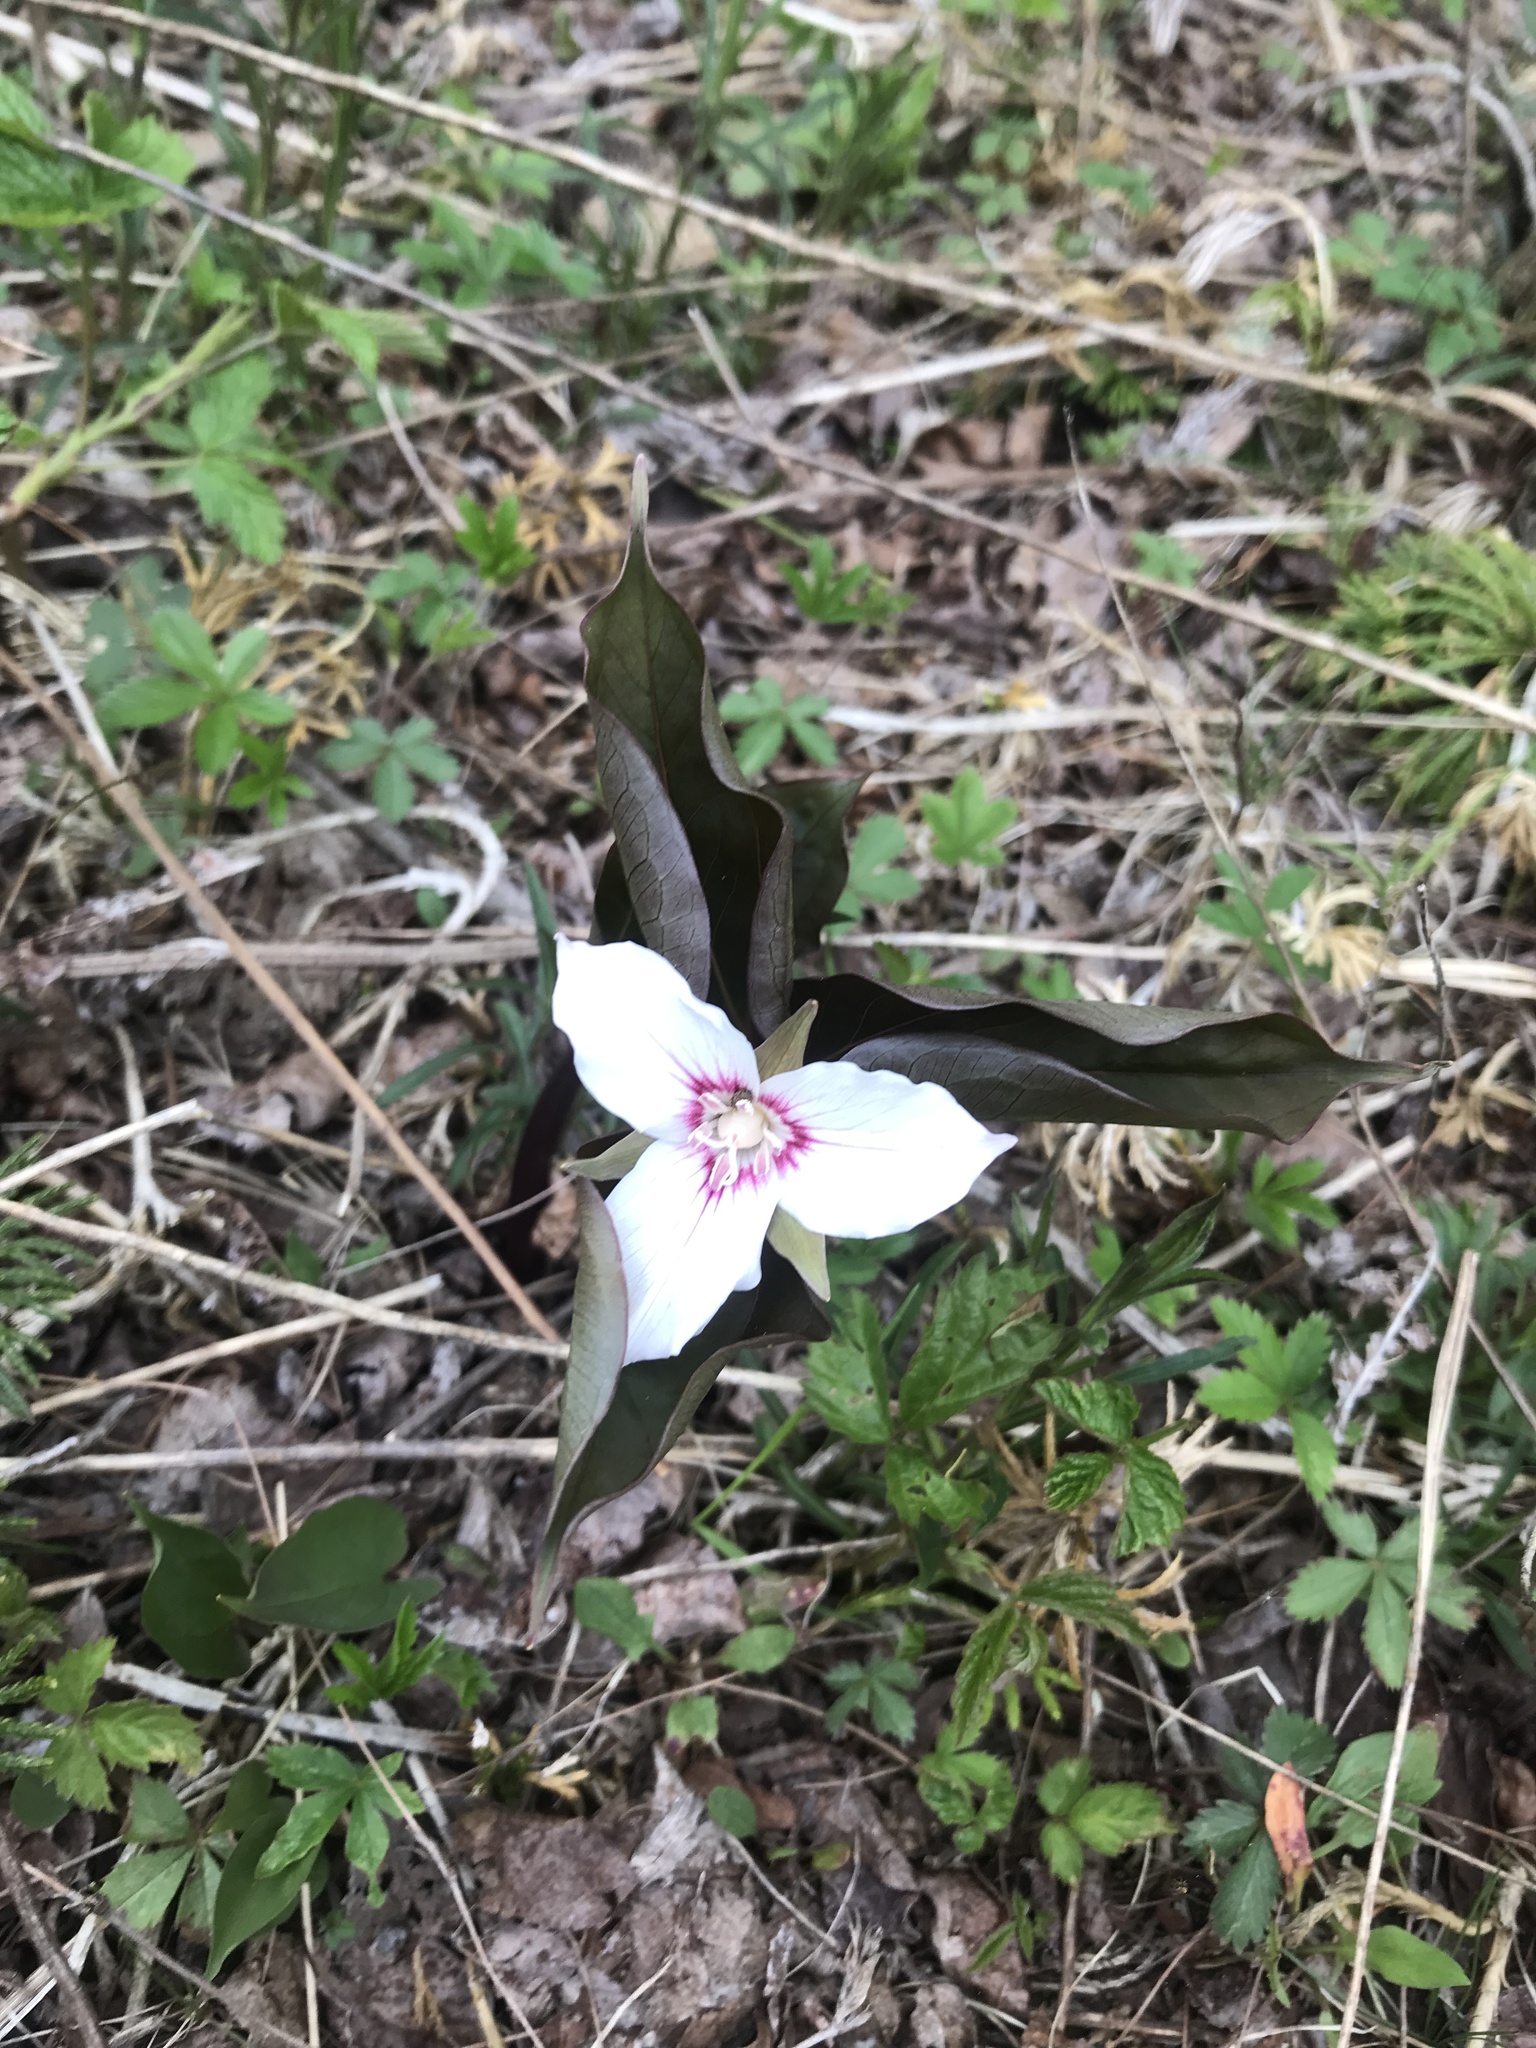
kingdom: Plantae
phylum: Tracheophyta
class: Liliopsida
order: Liliales
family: Melanthiaceae
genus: Trillium
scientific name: Trillium undulatum
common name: Paint trillium
